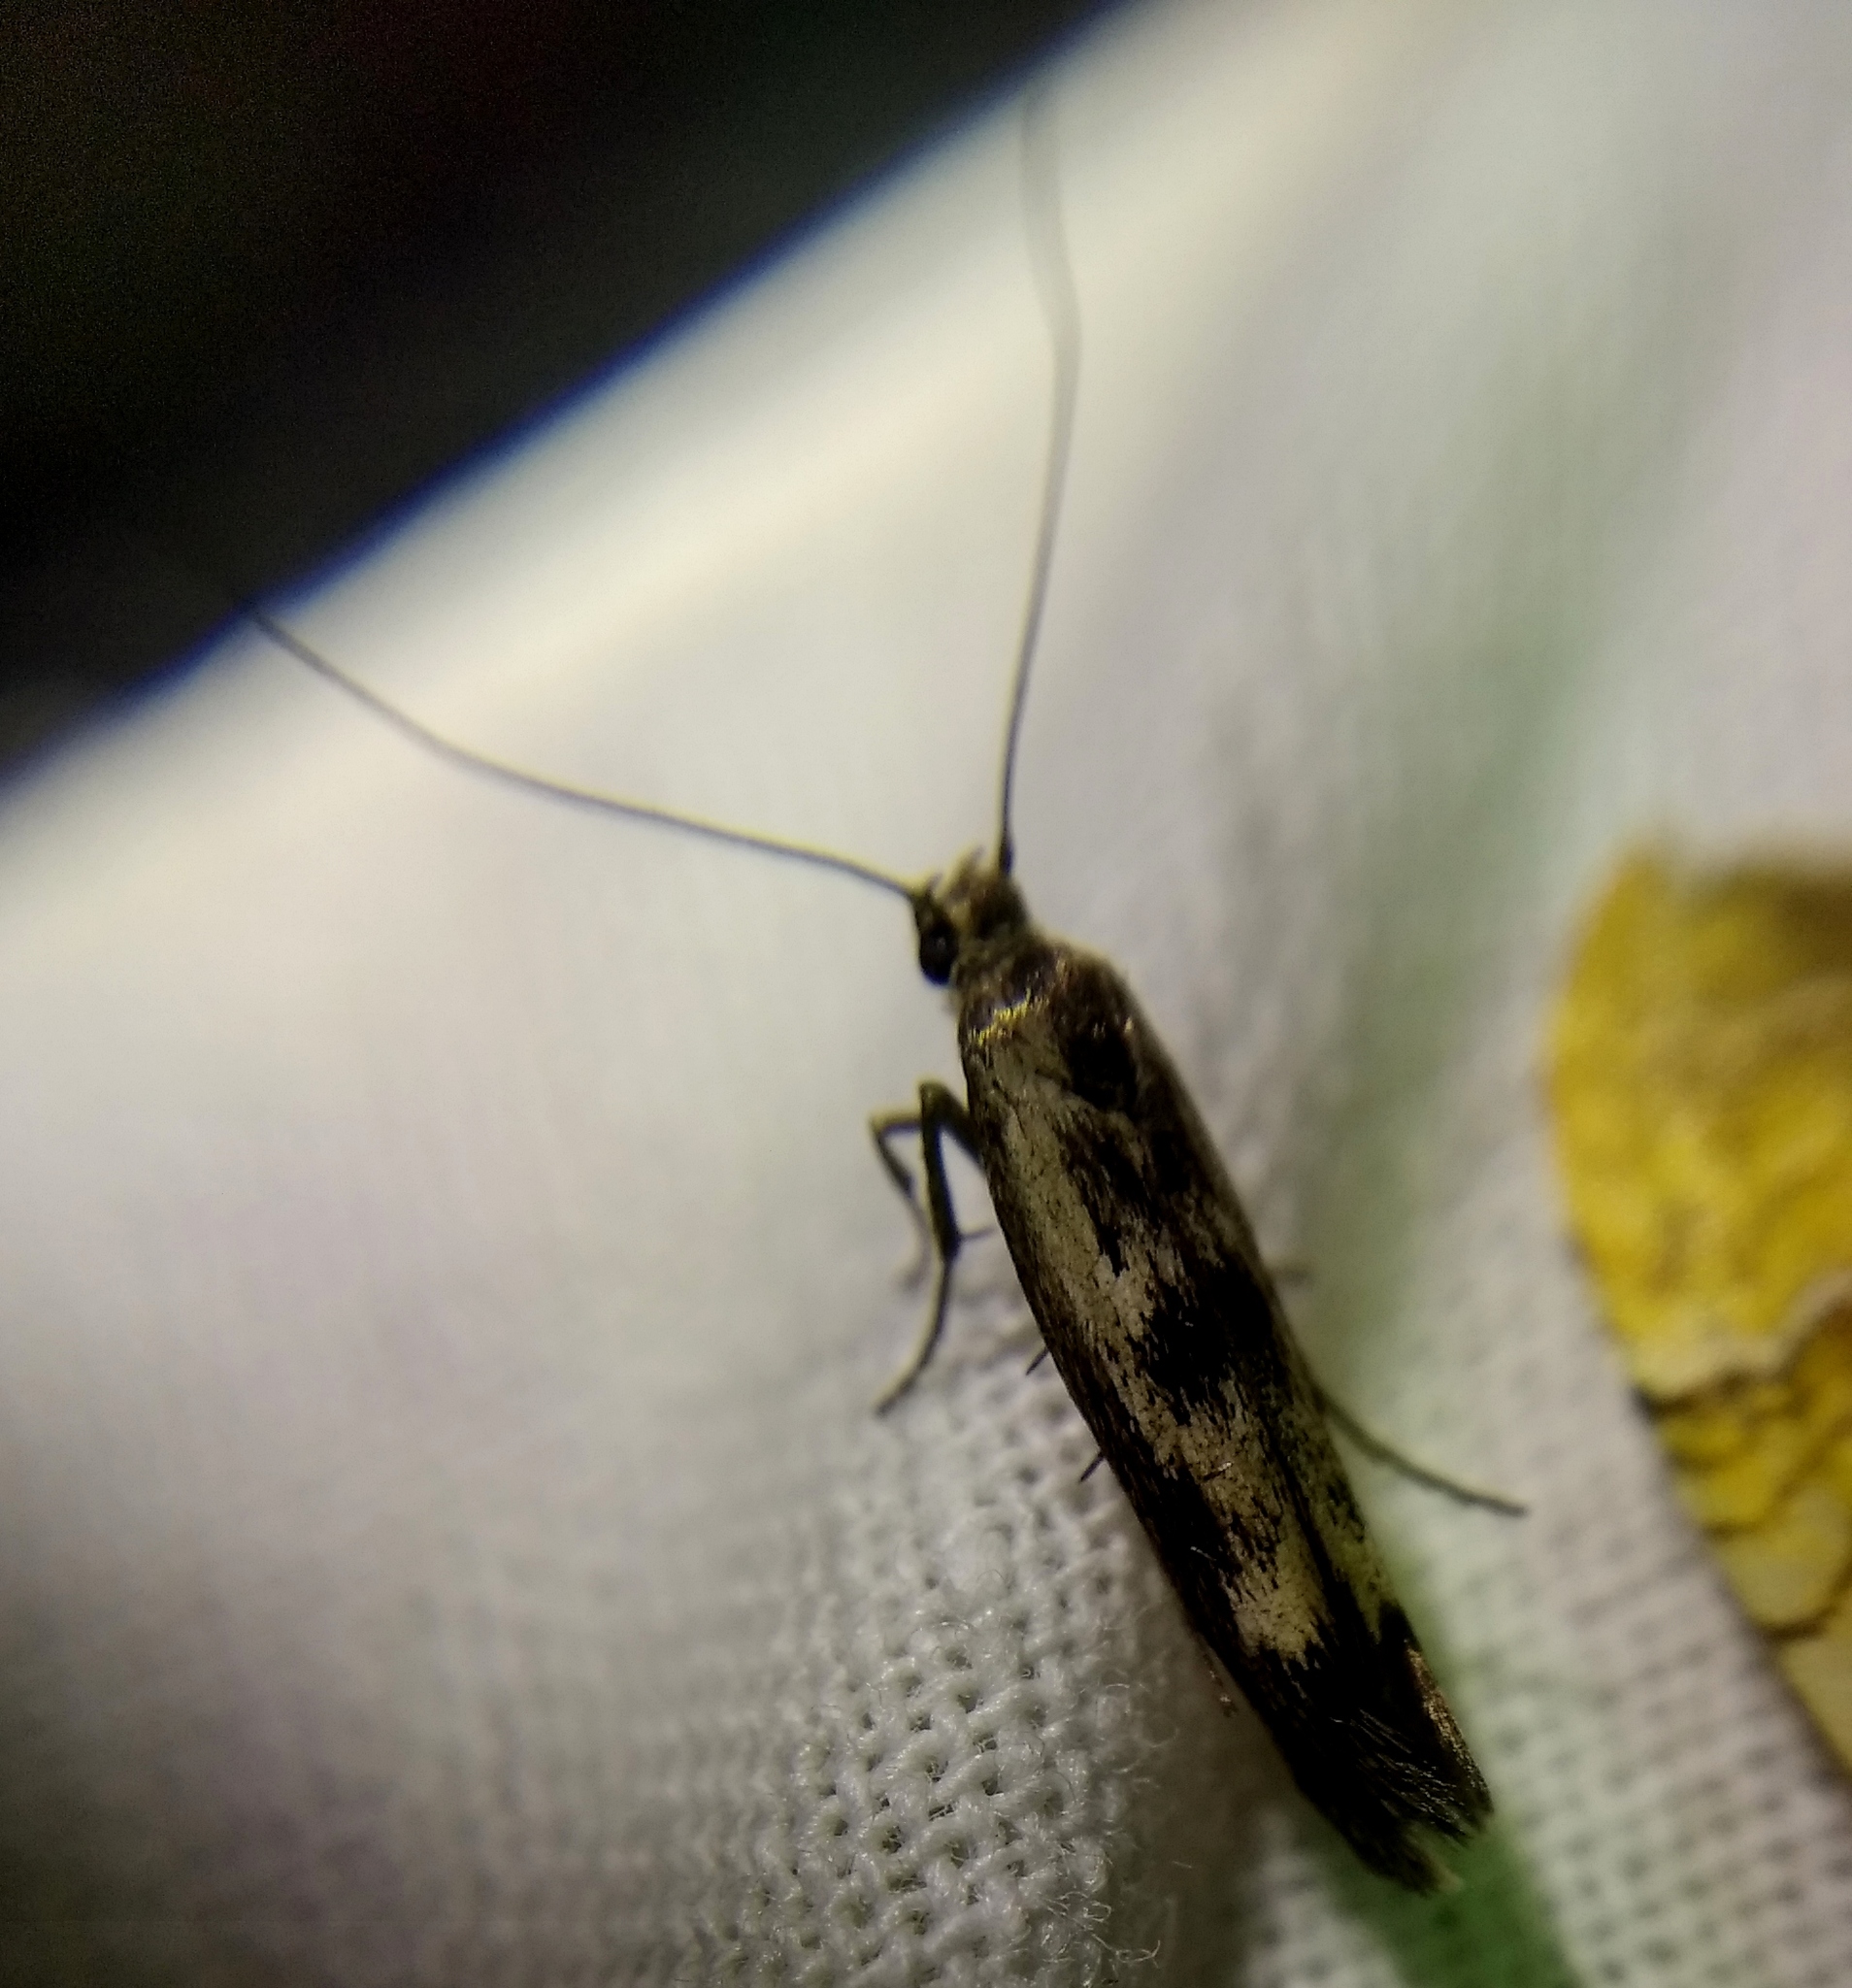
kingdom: Animalia
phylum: Arthropoda
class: Insecta
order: Lepidoptera
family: Scythrididae
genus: Scythris
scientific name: Scythris limbella
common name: Goosefoot owlet
